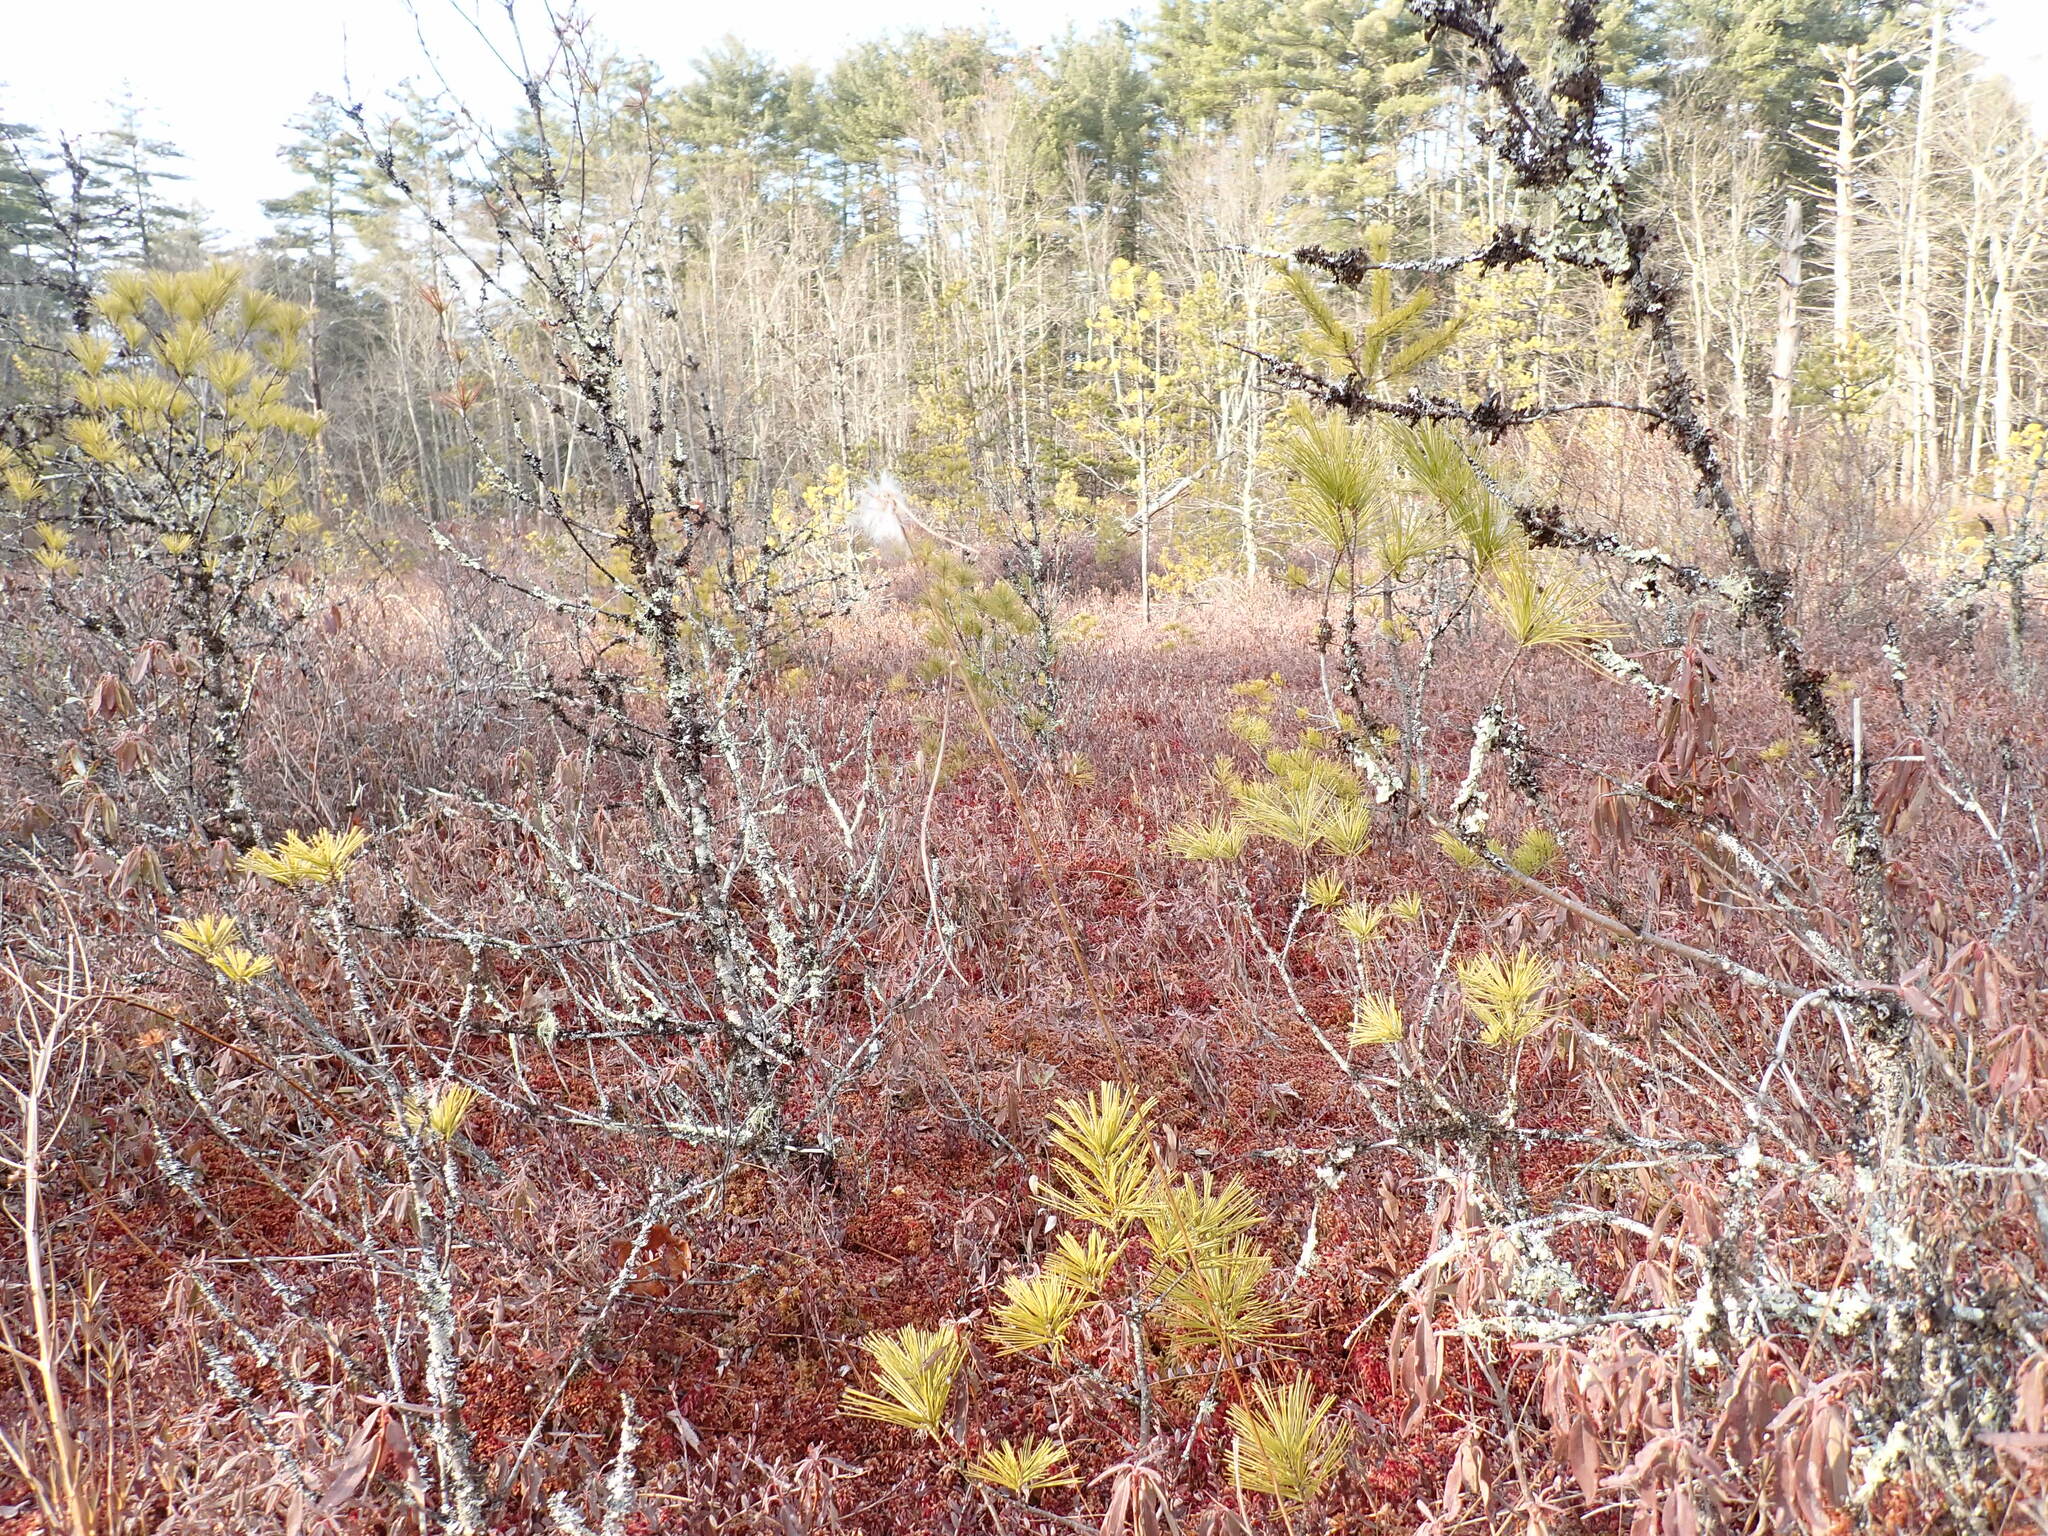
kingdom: Plantae
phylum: Tracheophyta
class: Pinopsida
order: Pinales
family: Pinaceae
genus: Pinus
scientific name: Pinus strobus
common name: Weymouth pine
